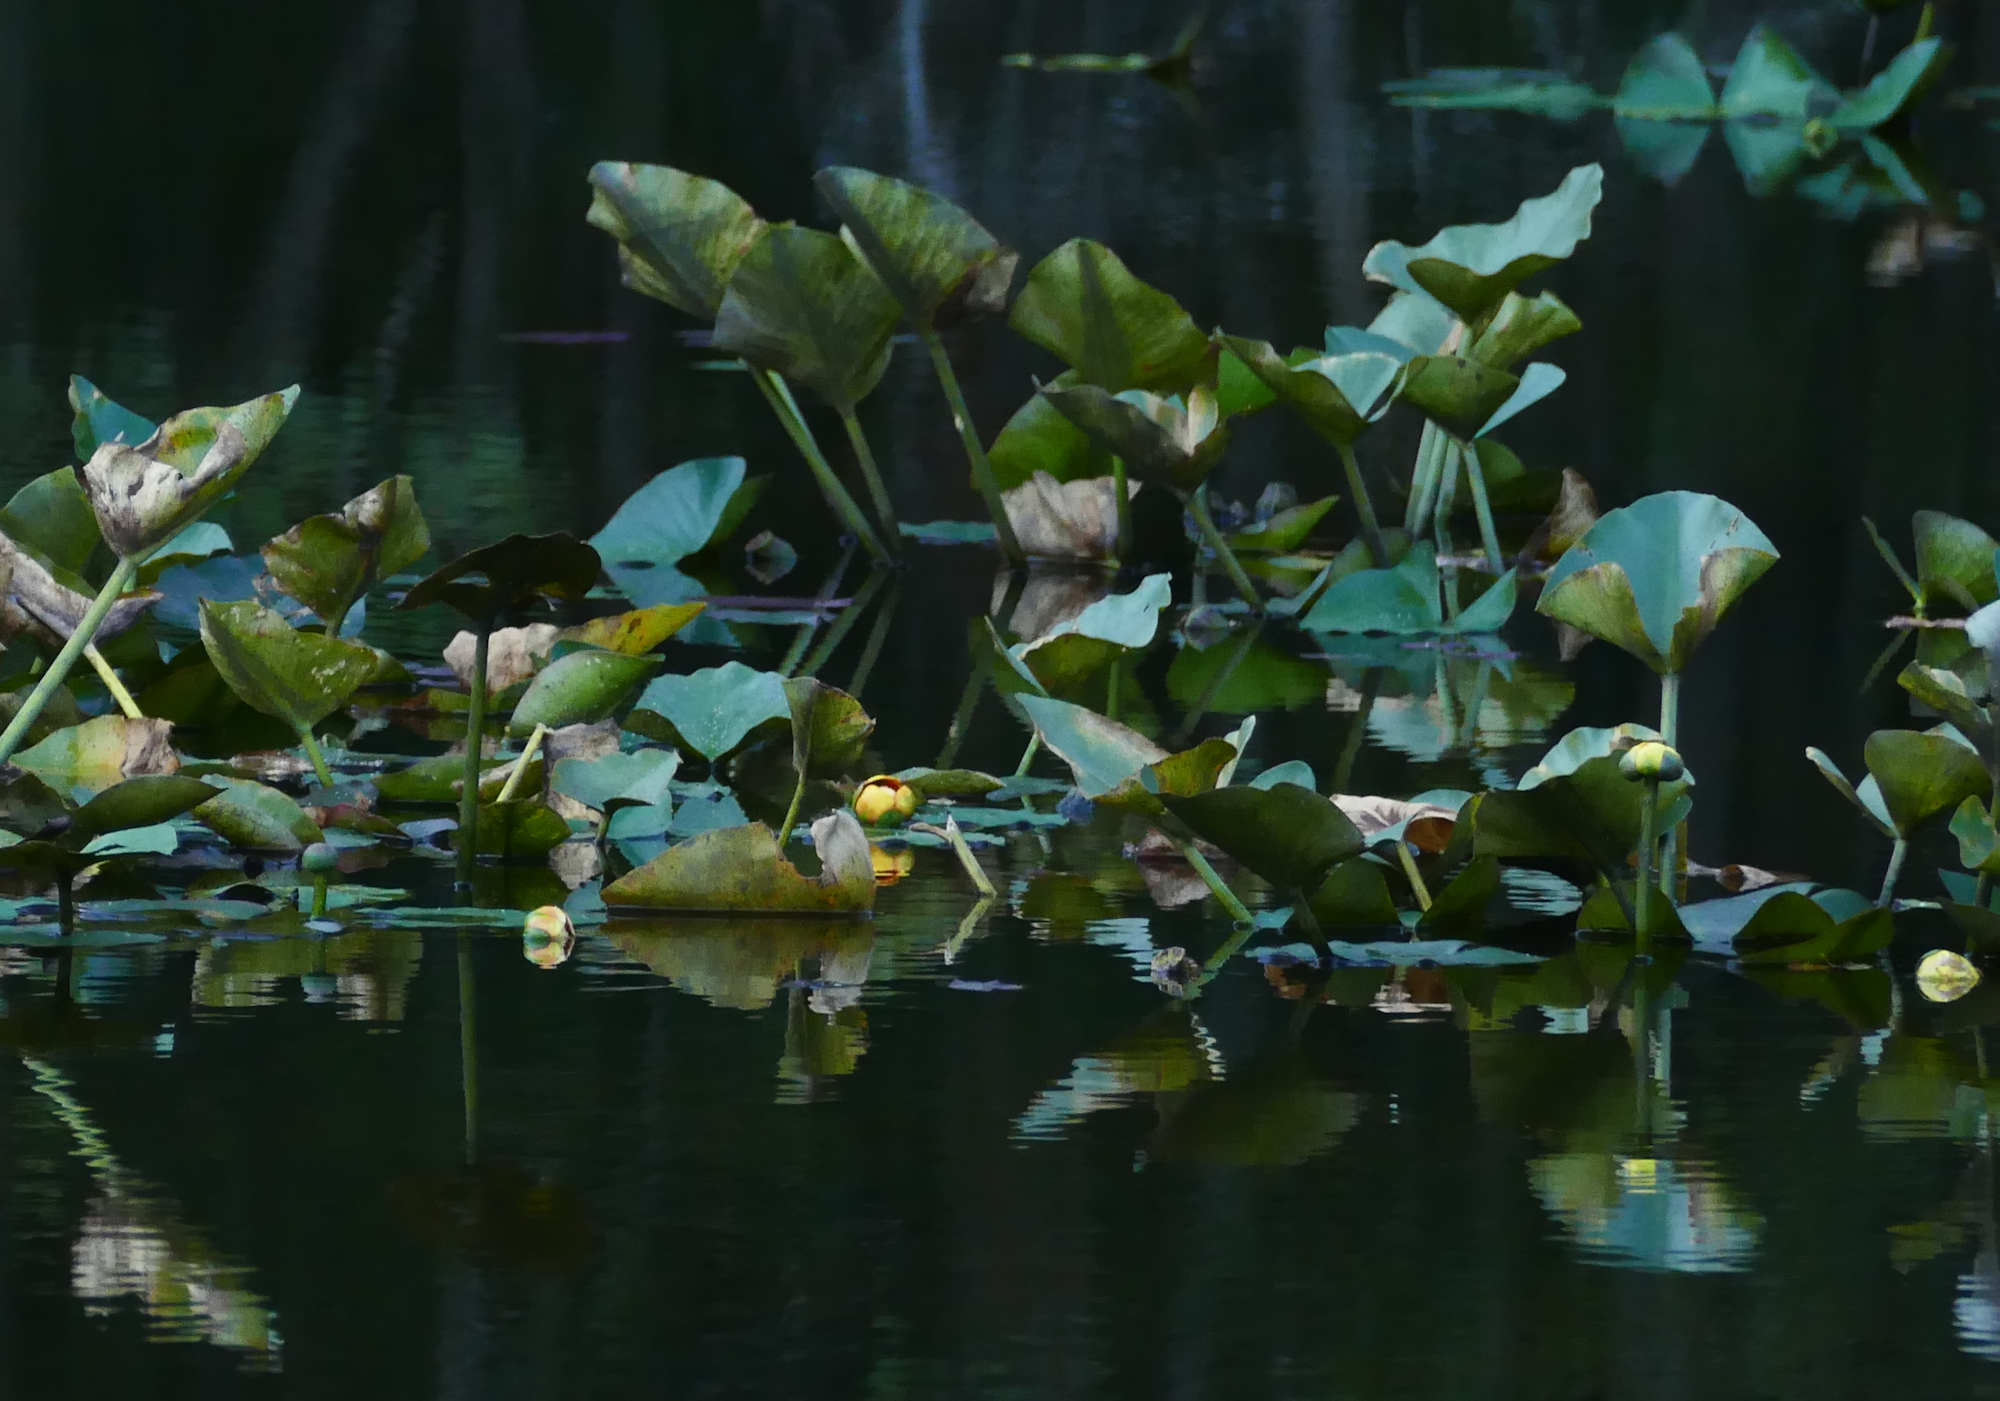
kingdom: Plantae
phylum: Tracheophyta
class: Magnoliopsida
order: Nymphaeales
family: Nymphaeaceae
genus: Nuphar
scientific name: Nuphar advena
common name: Spatter-dock
